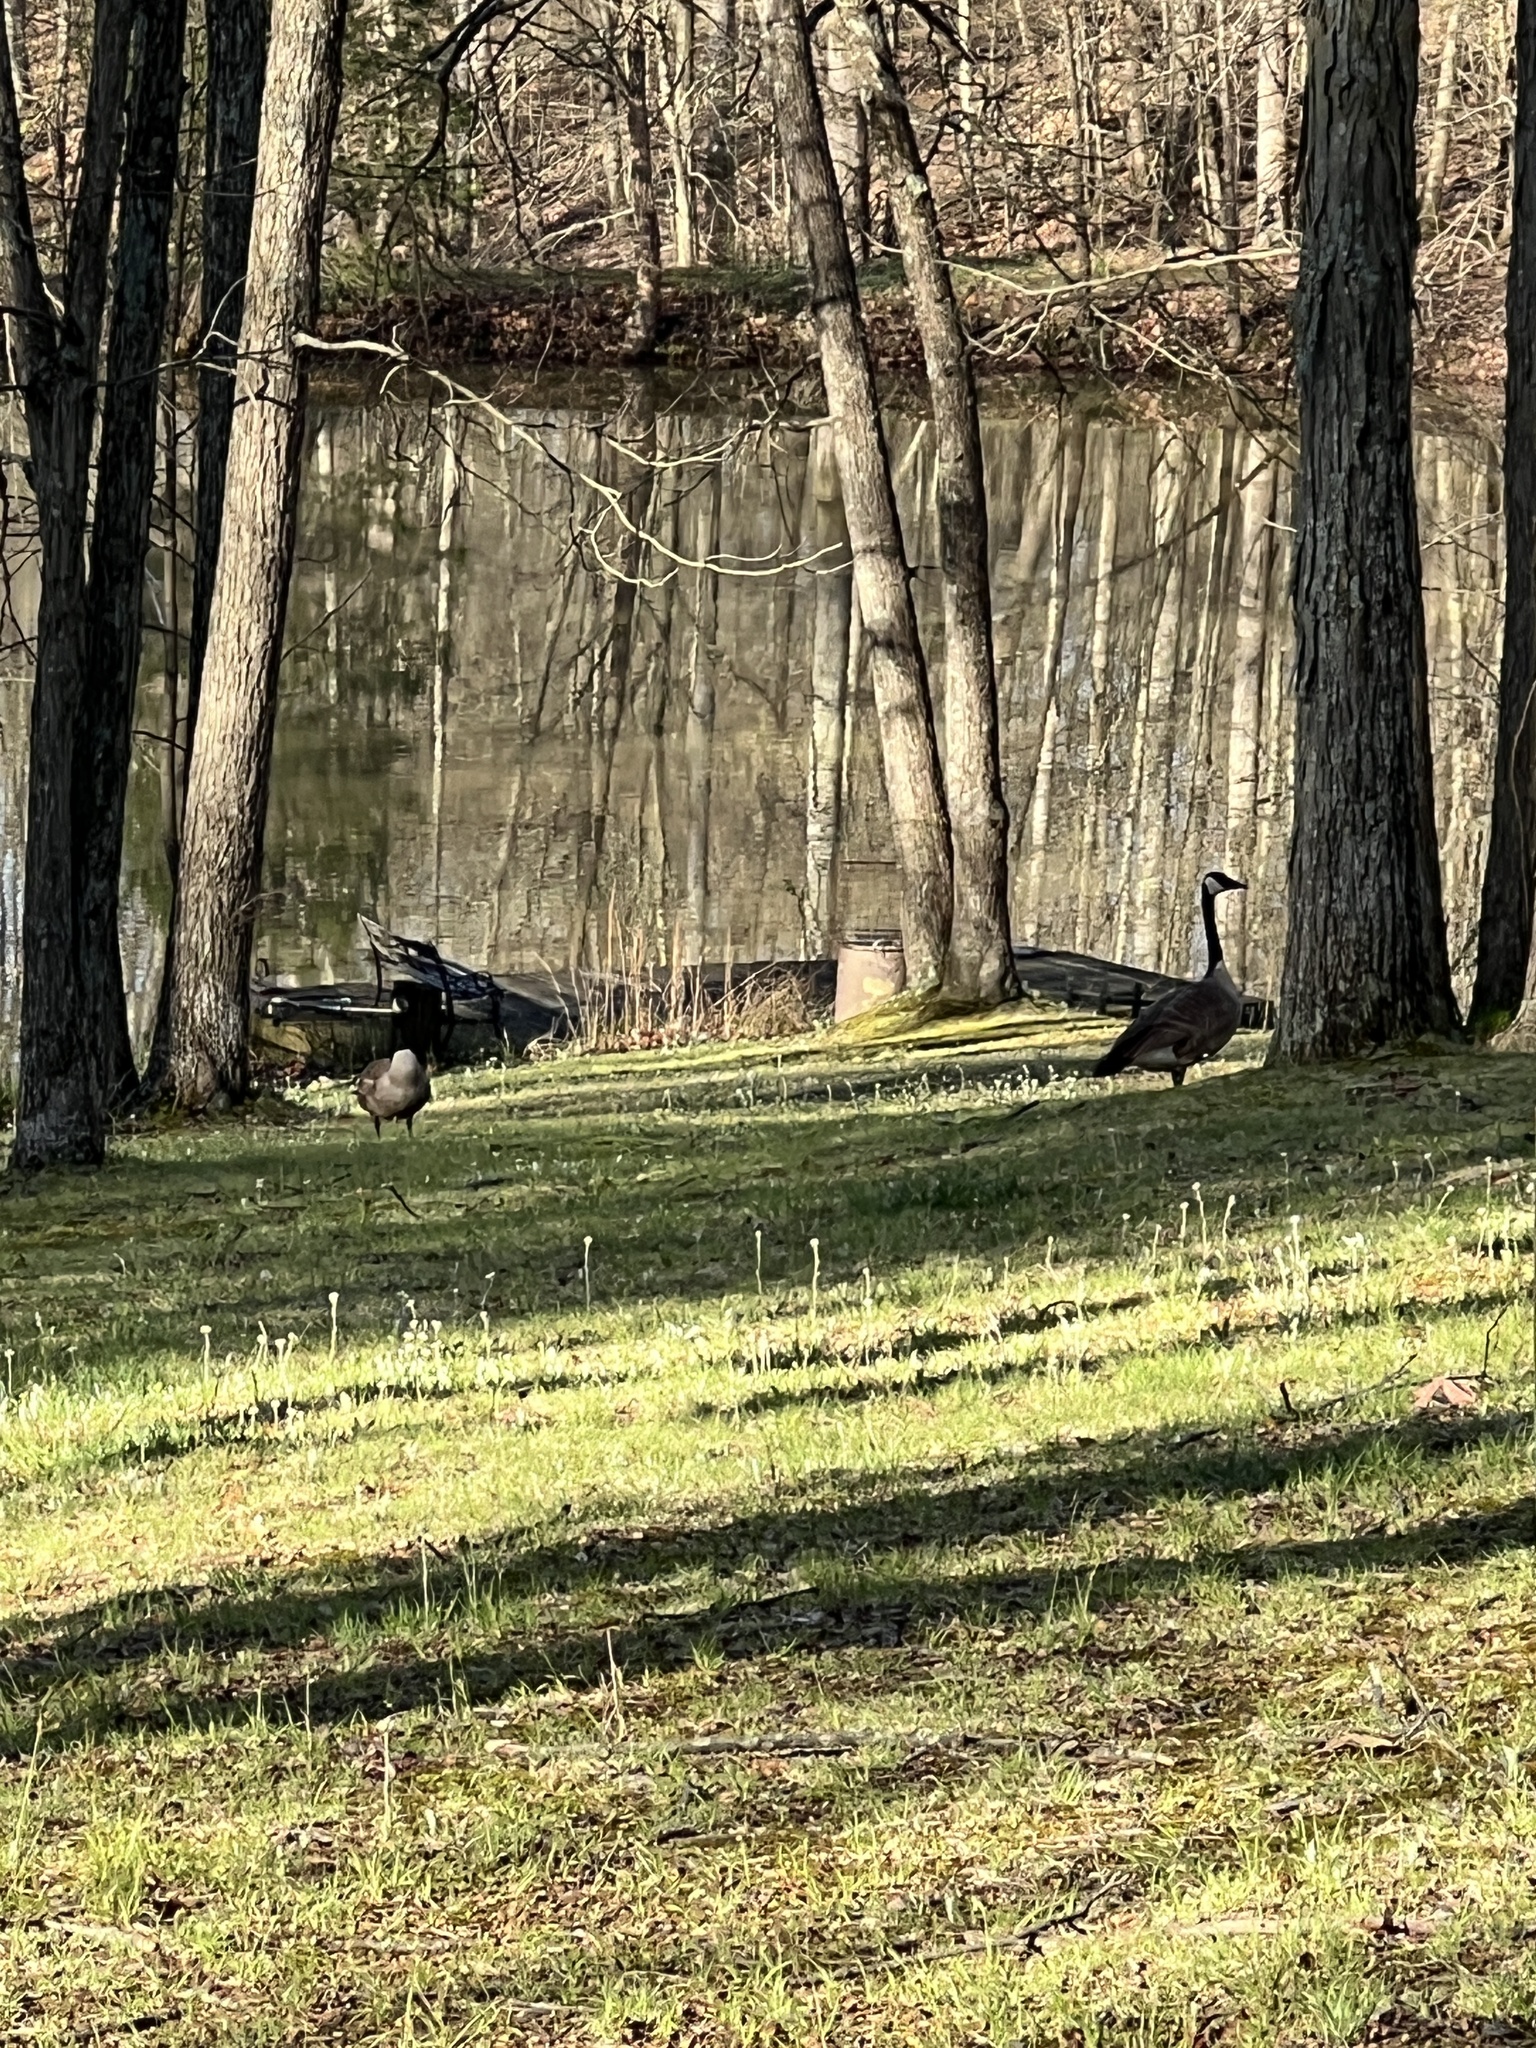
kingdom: Animalia
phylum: Chordata
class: Aves
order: Anseriformes
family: Anatidae
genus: Branta
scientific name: Branta canadensis
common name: Canada goose
